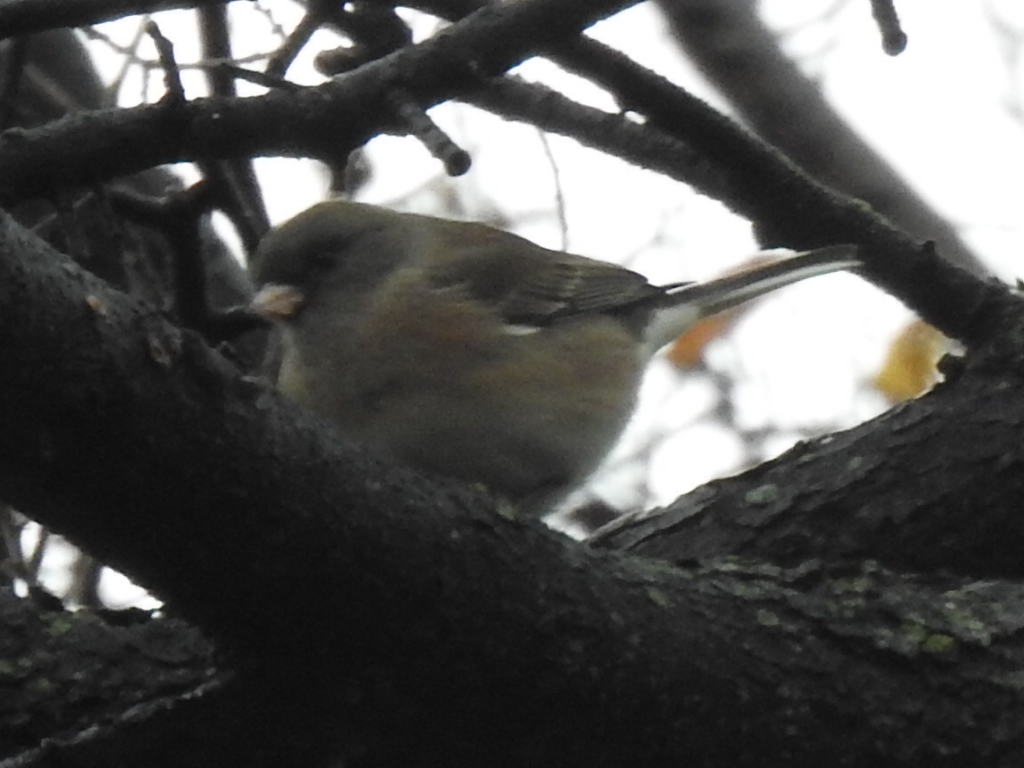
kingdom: Animalia
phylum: Chordata
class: Aves
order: Passeriformes
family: Passerellidae
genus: Junco
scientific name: Junco hyemalis
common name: Dark-eyed junco
